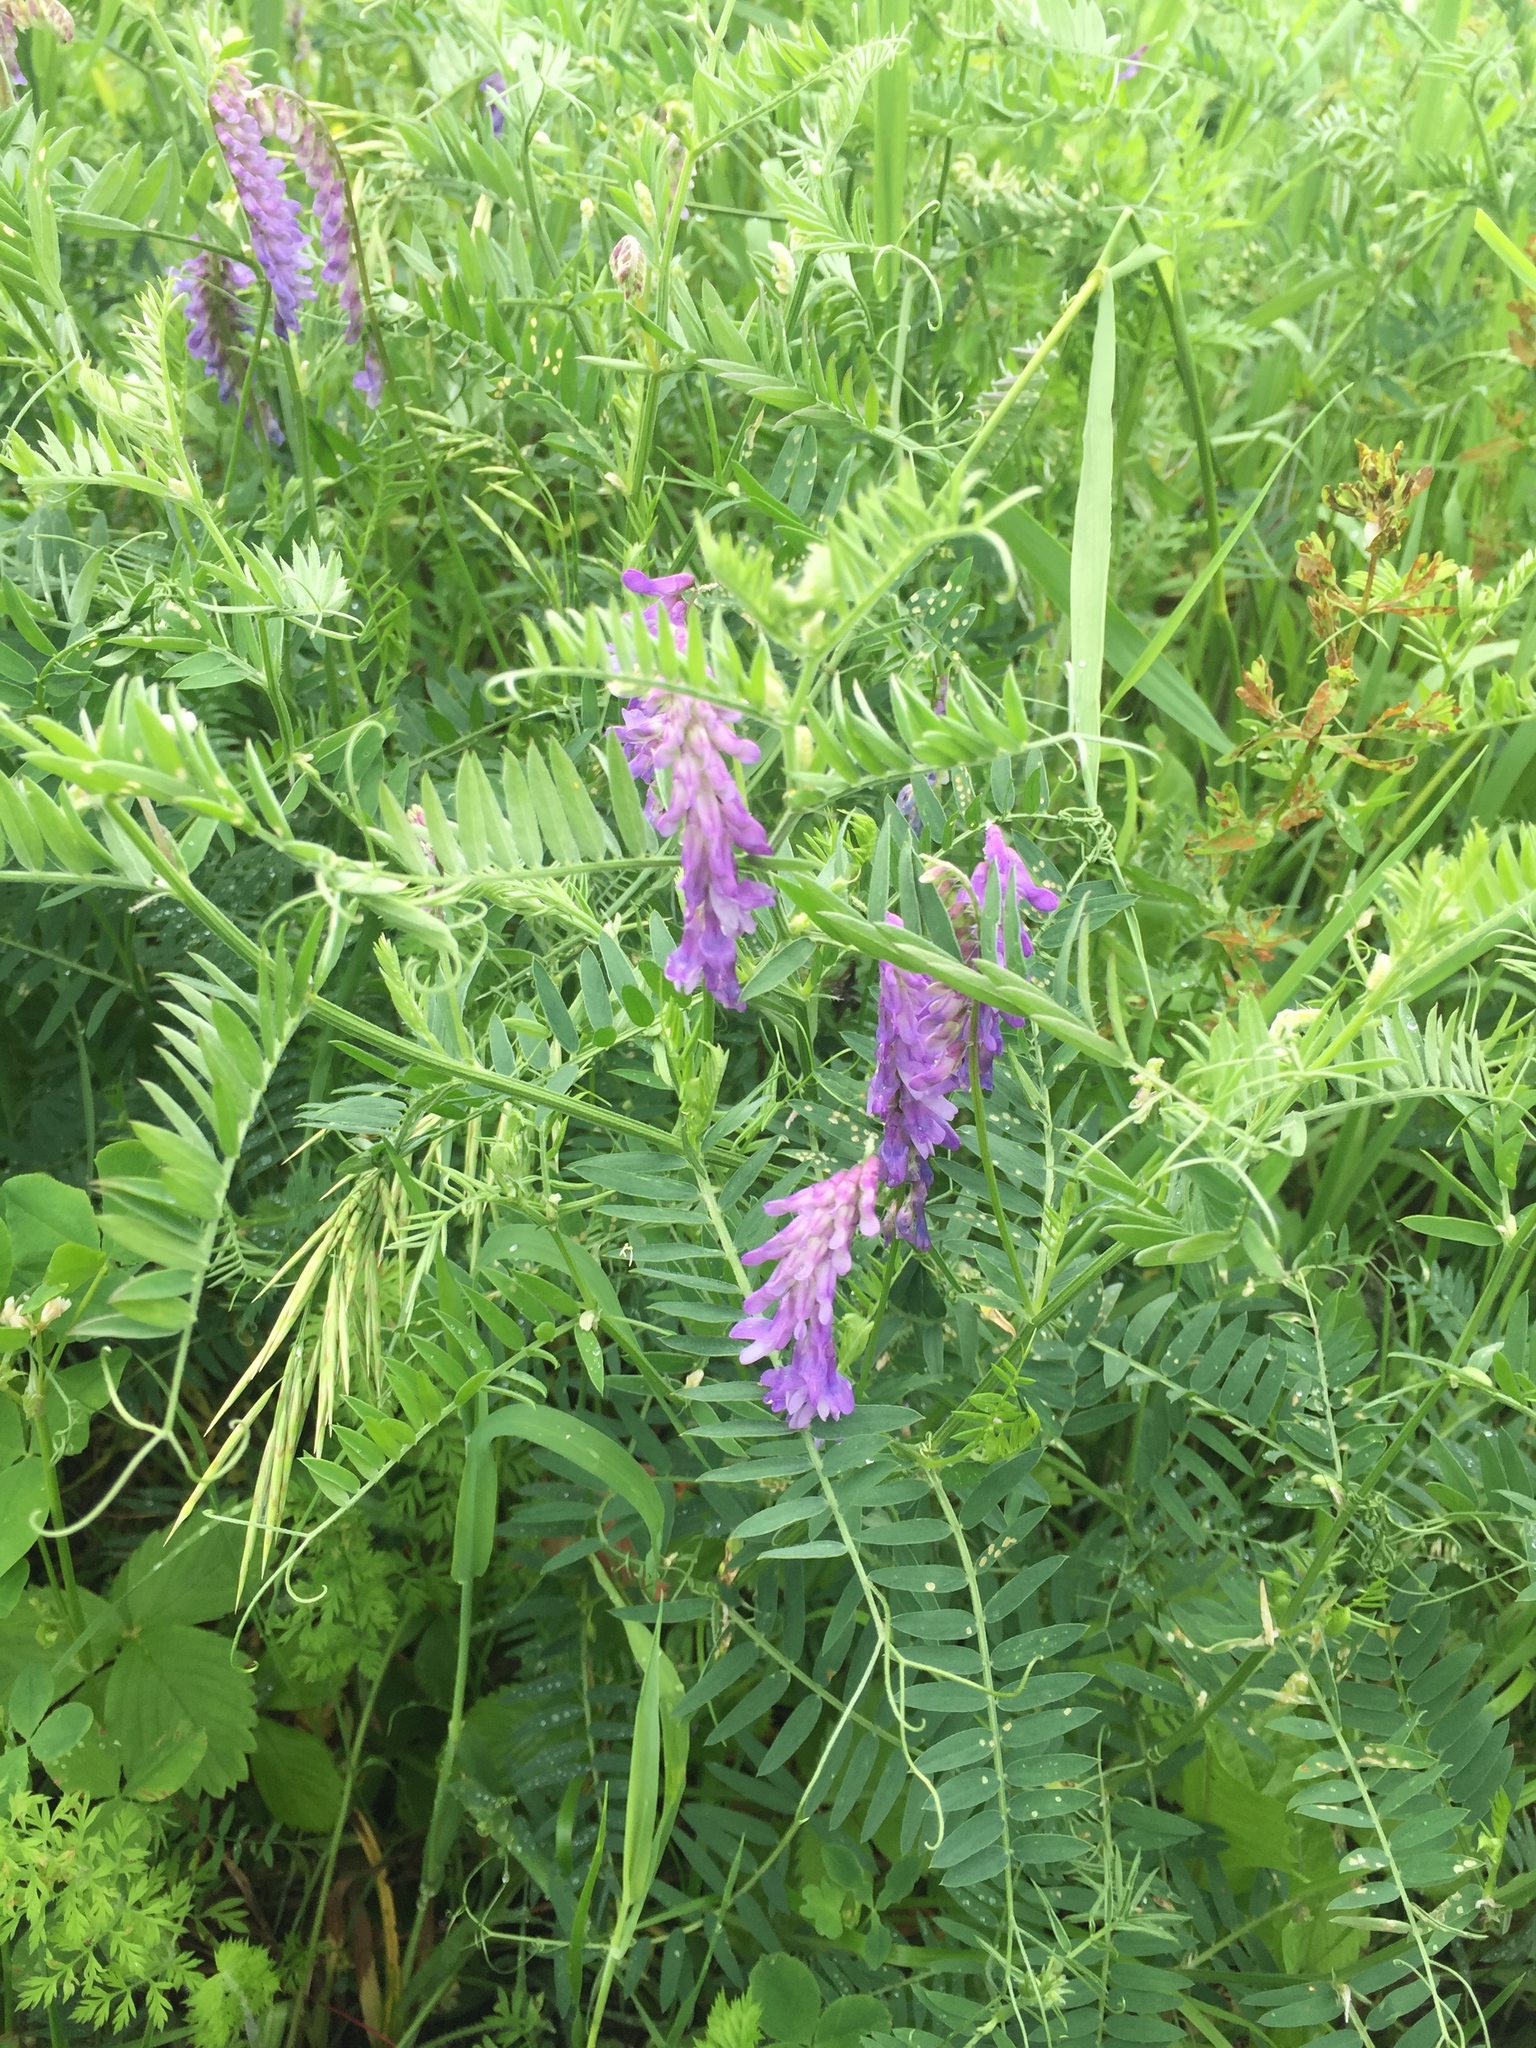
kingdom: Plantae
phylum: Tracheophyta
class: Magnoliopsida
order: Fabales
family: Fabaceae
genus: Vicia
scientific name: Vicia cracca
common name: Bird vetch
